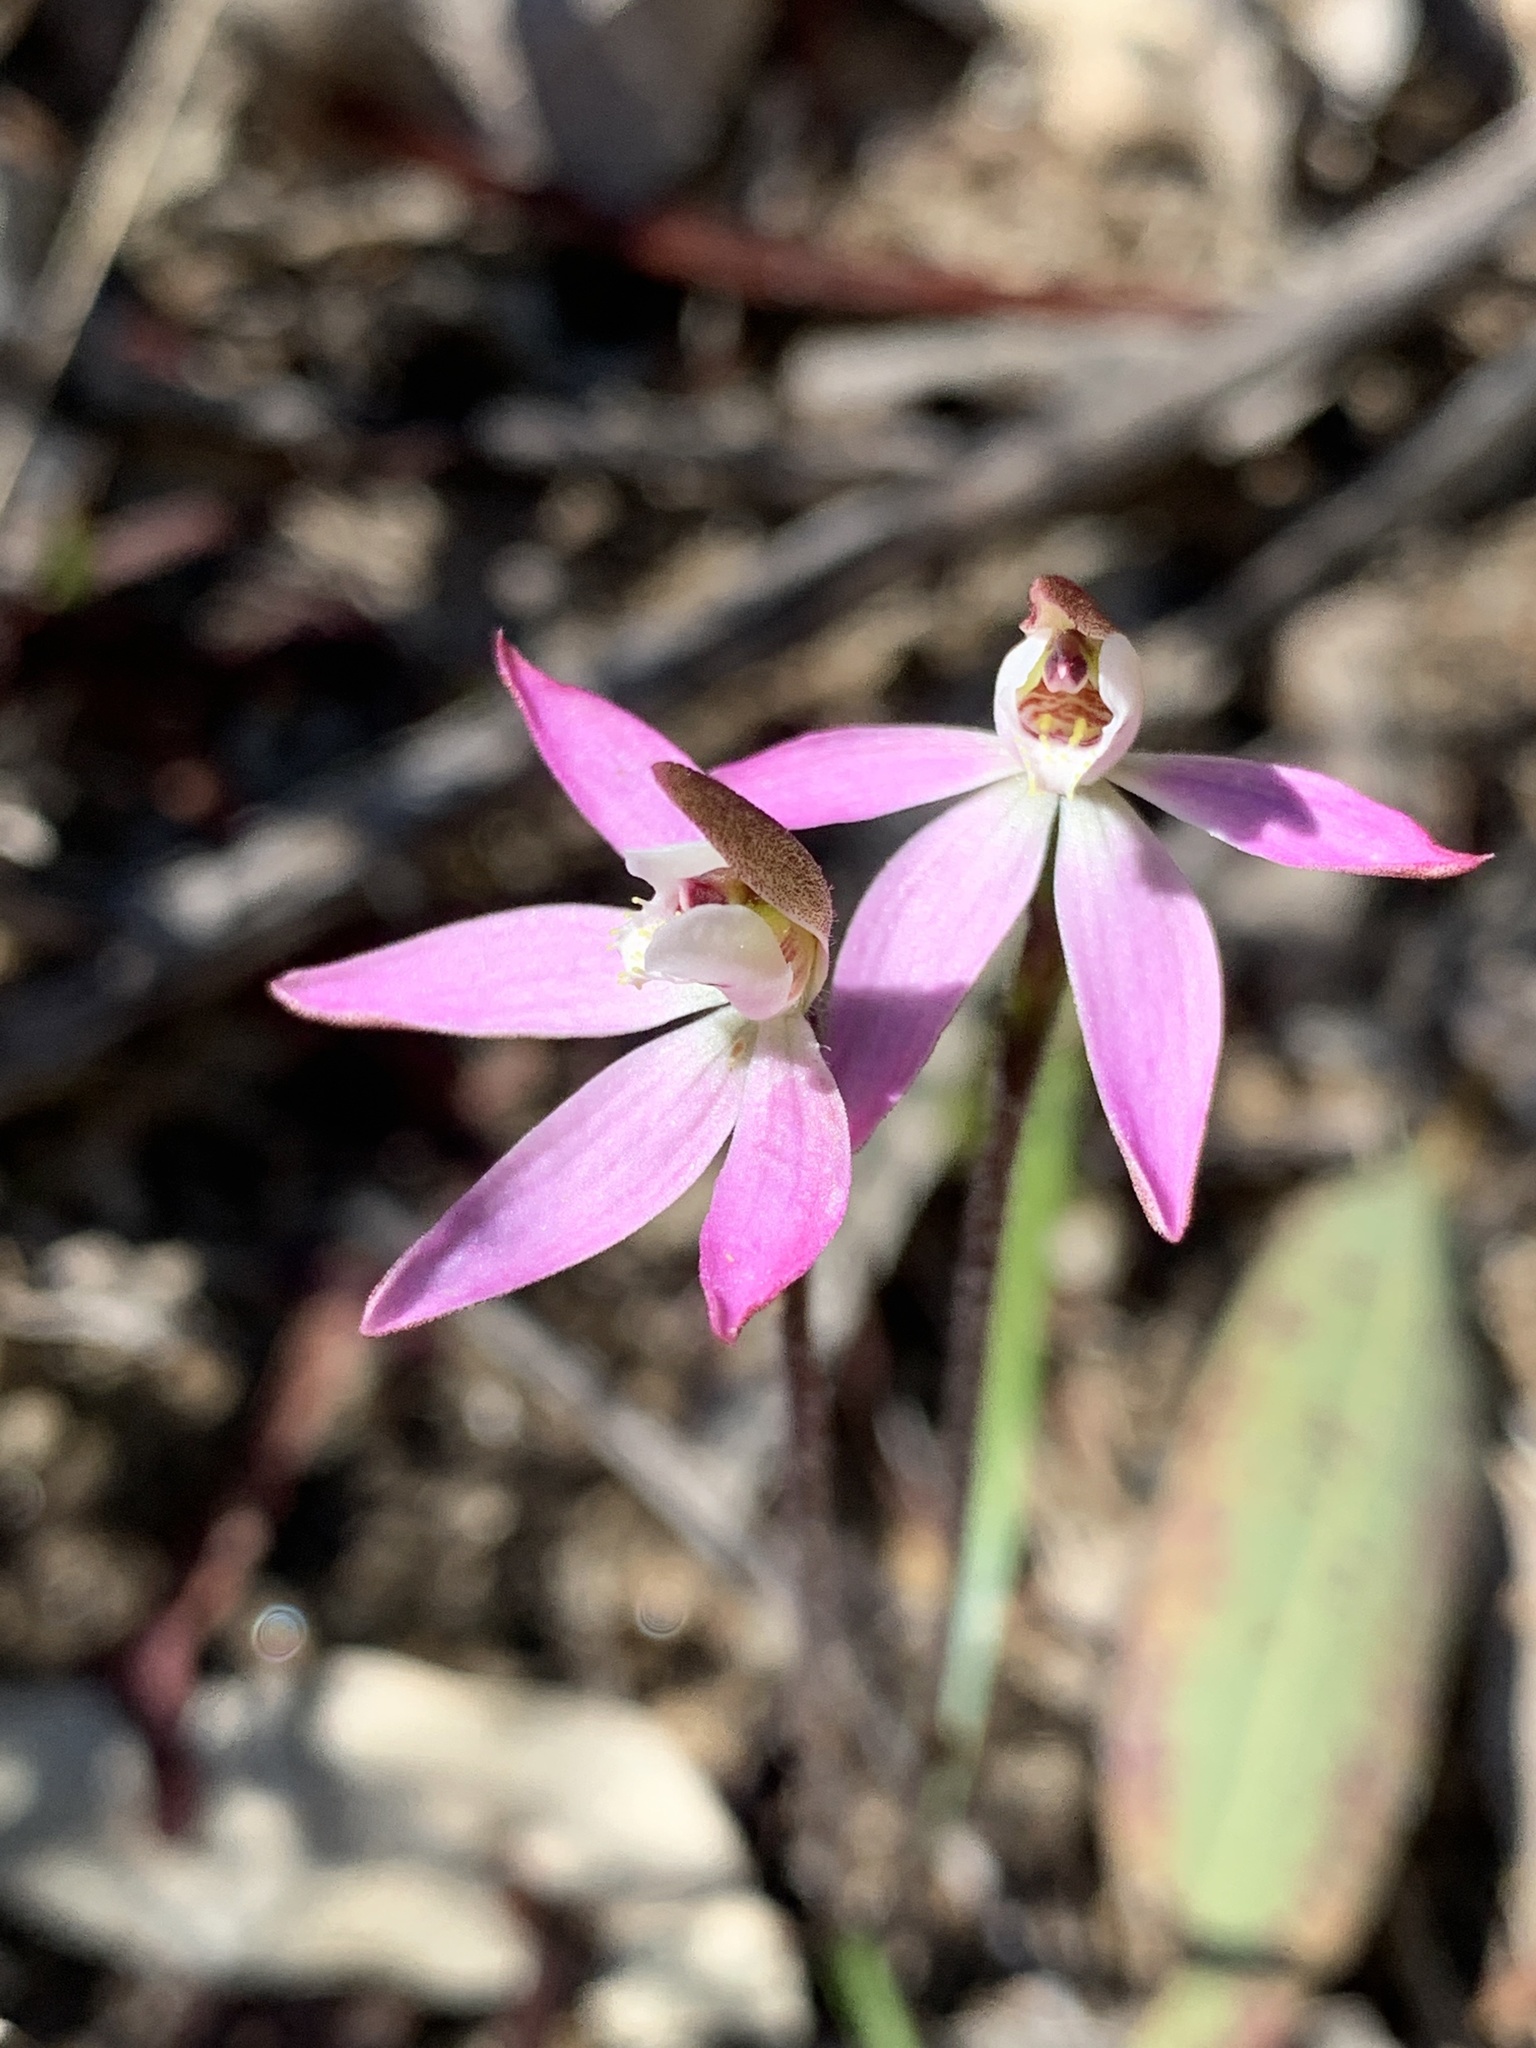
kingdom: Plantae
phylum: Tracheophyta
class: Liliopsida
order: Asparagales
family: Orchidaceae
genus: Caladenia
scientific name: Caladenia fuscata
